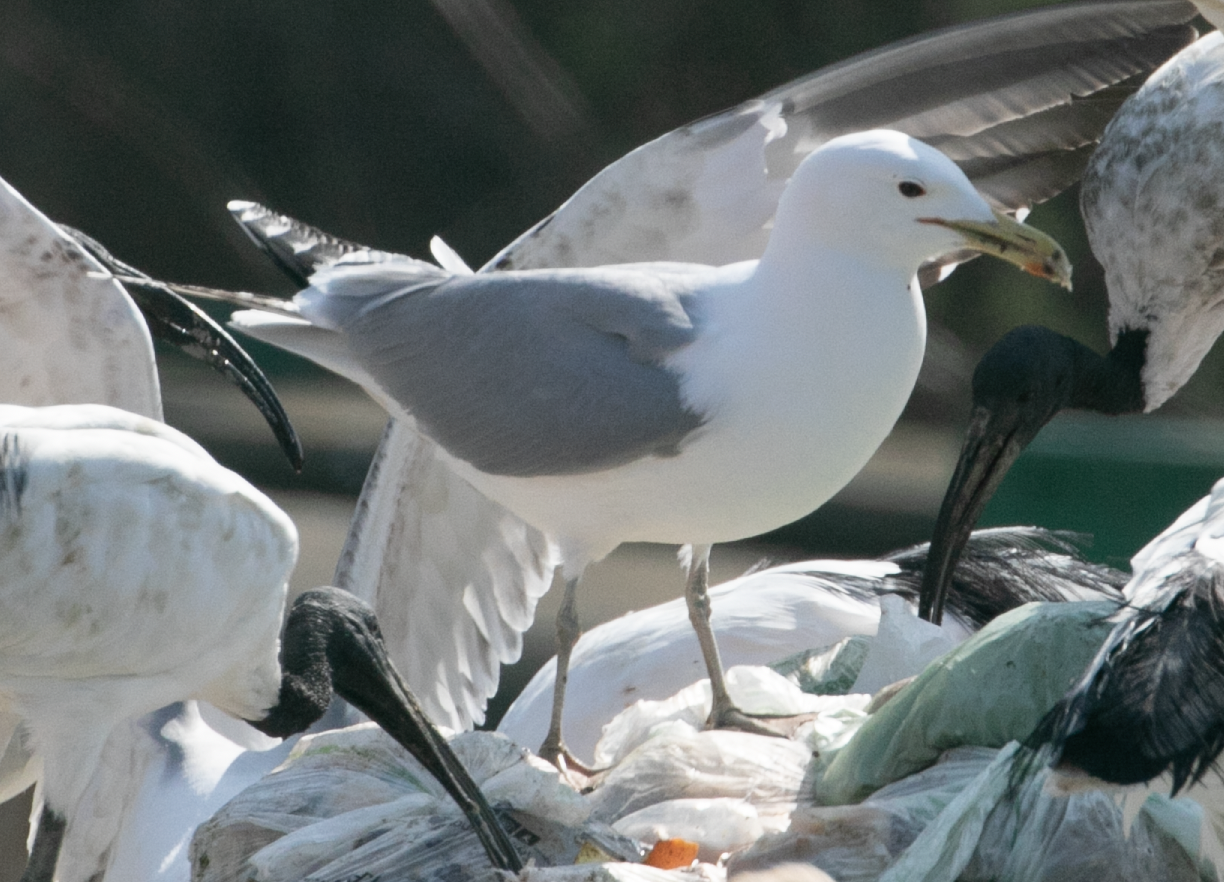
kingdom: Animalia
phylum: Chordata
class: Aves
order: Charadriiformes
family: Laridae
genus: Larus
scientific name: Larus cachinnans
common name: Caspian gull
